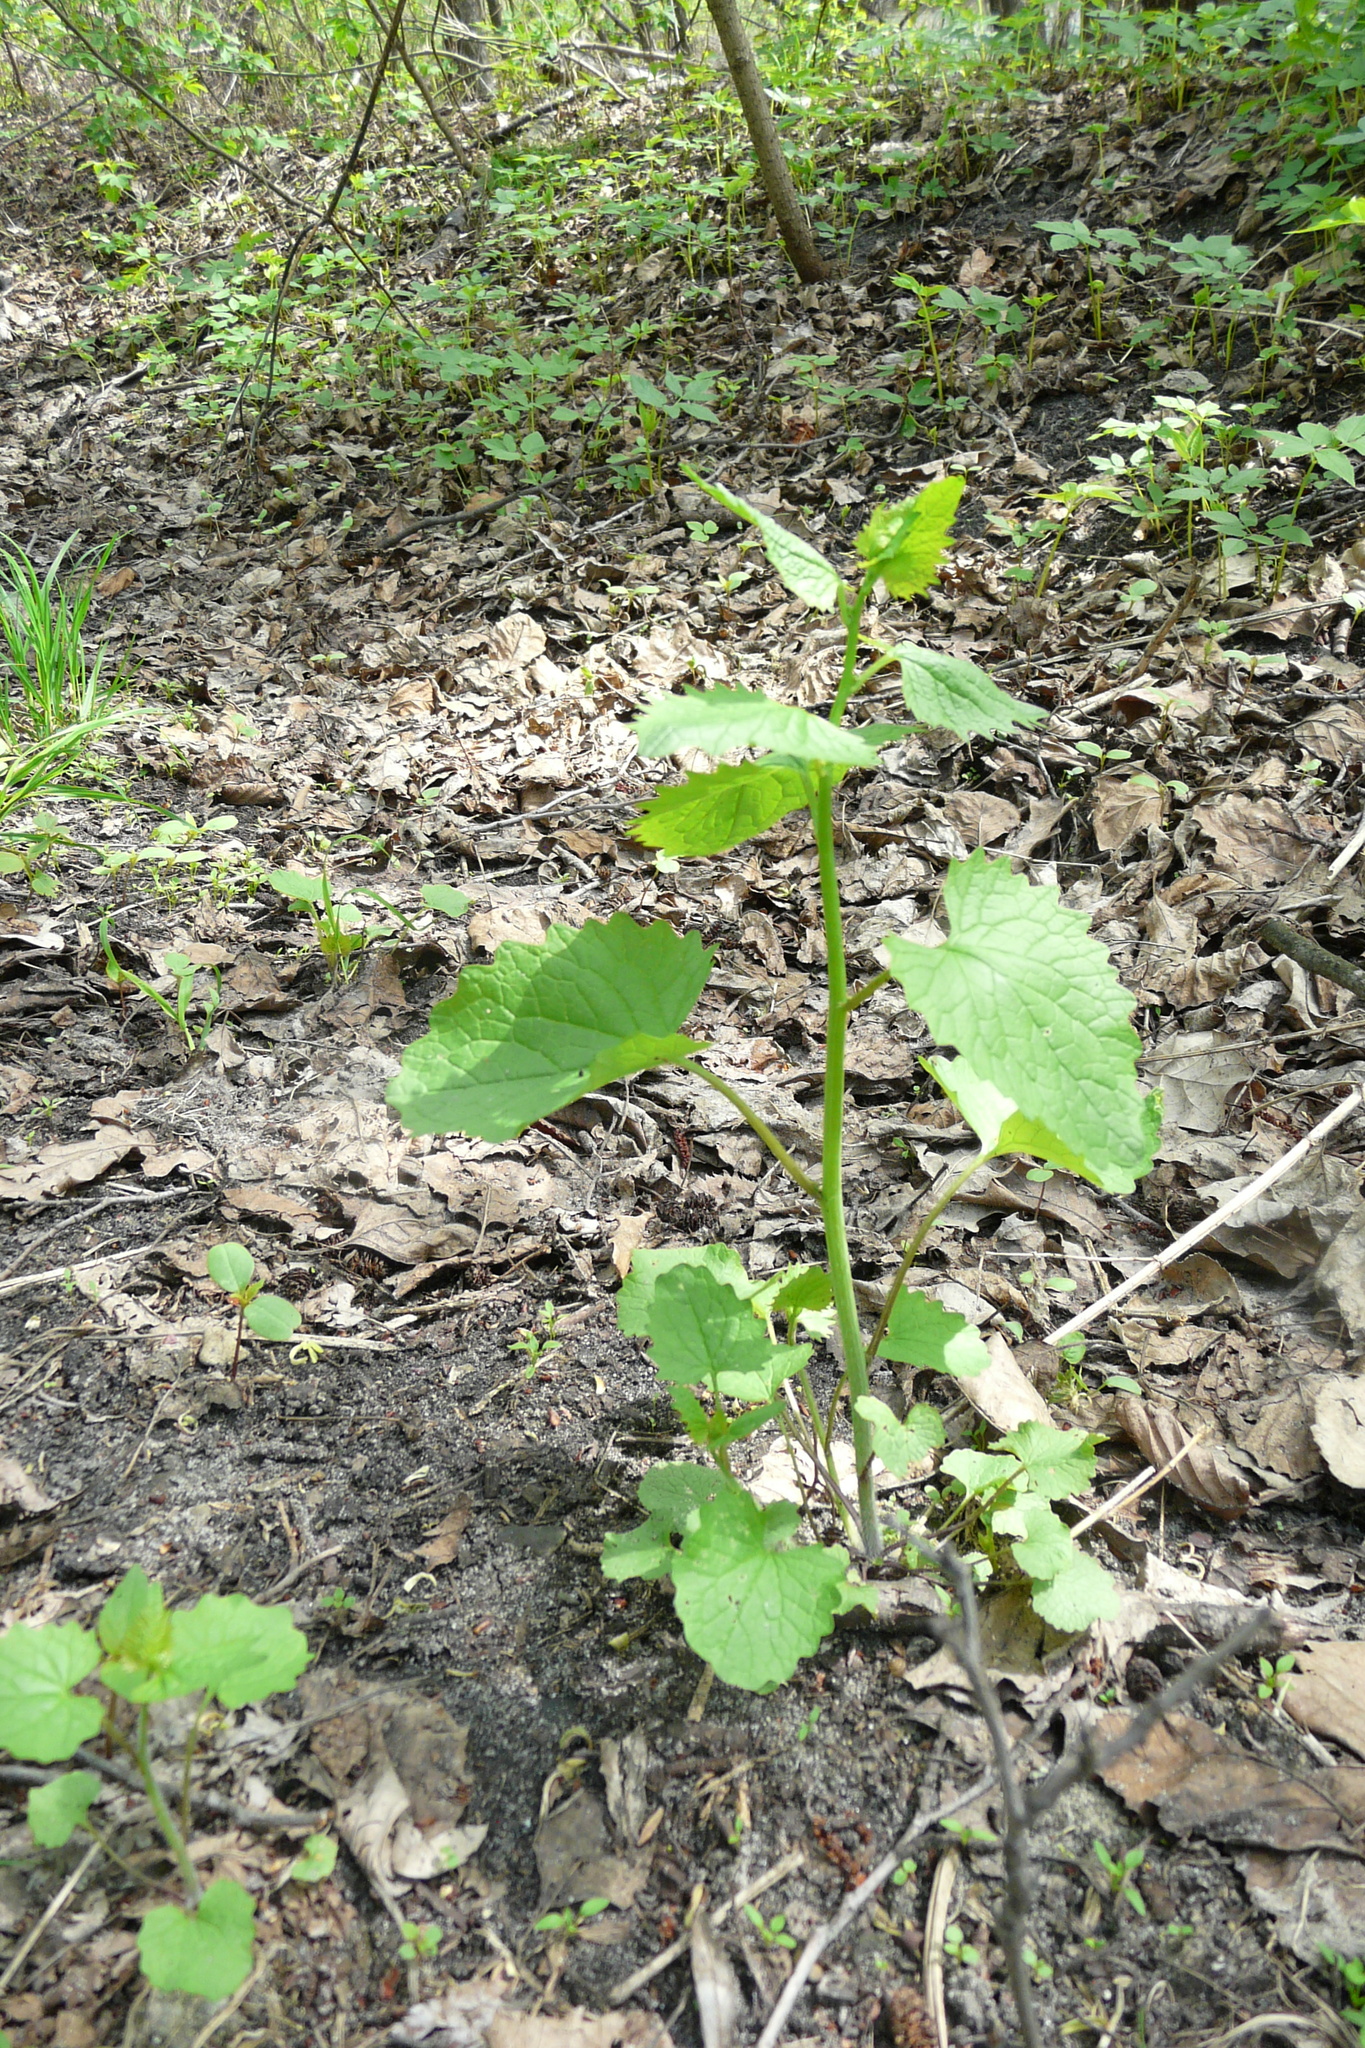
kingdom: Plantae
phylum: Tracheophyta
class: Magnoliopsida
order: Brassicales
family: Brassicaceae
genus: Alliaria
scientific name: Alliaria petiolata
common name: Garlic mustard
